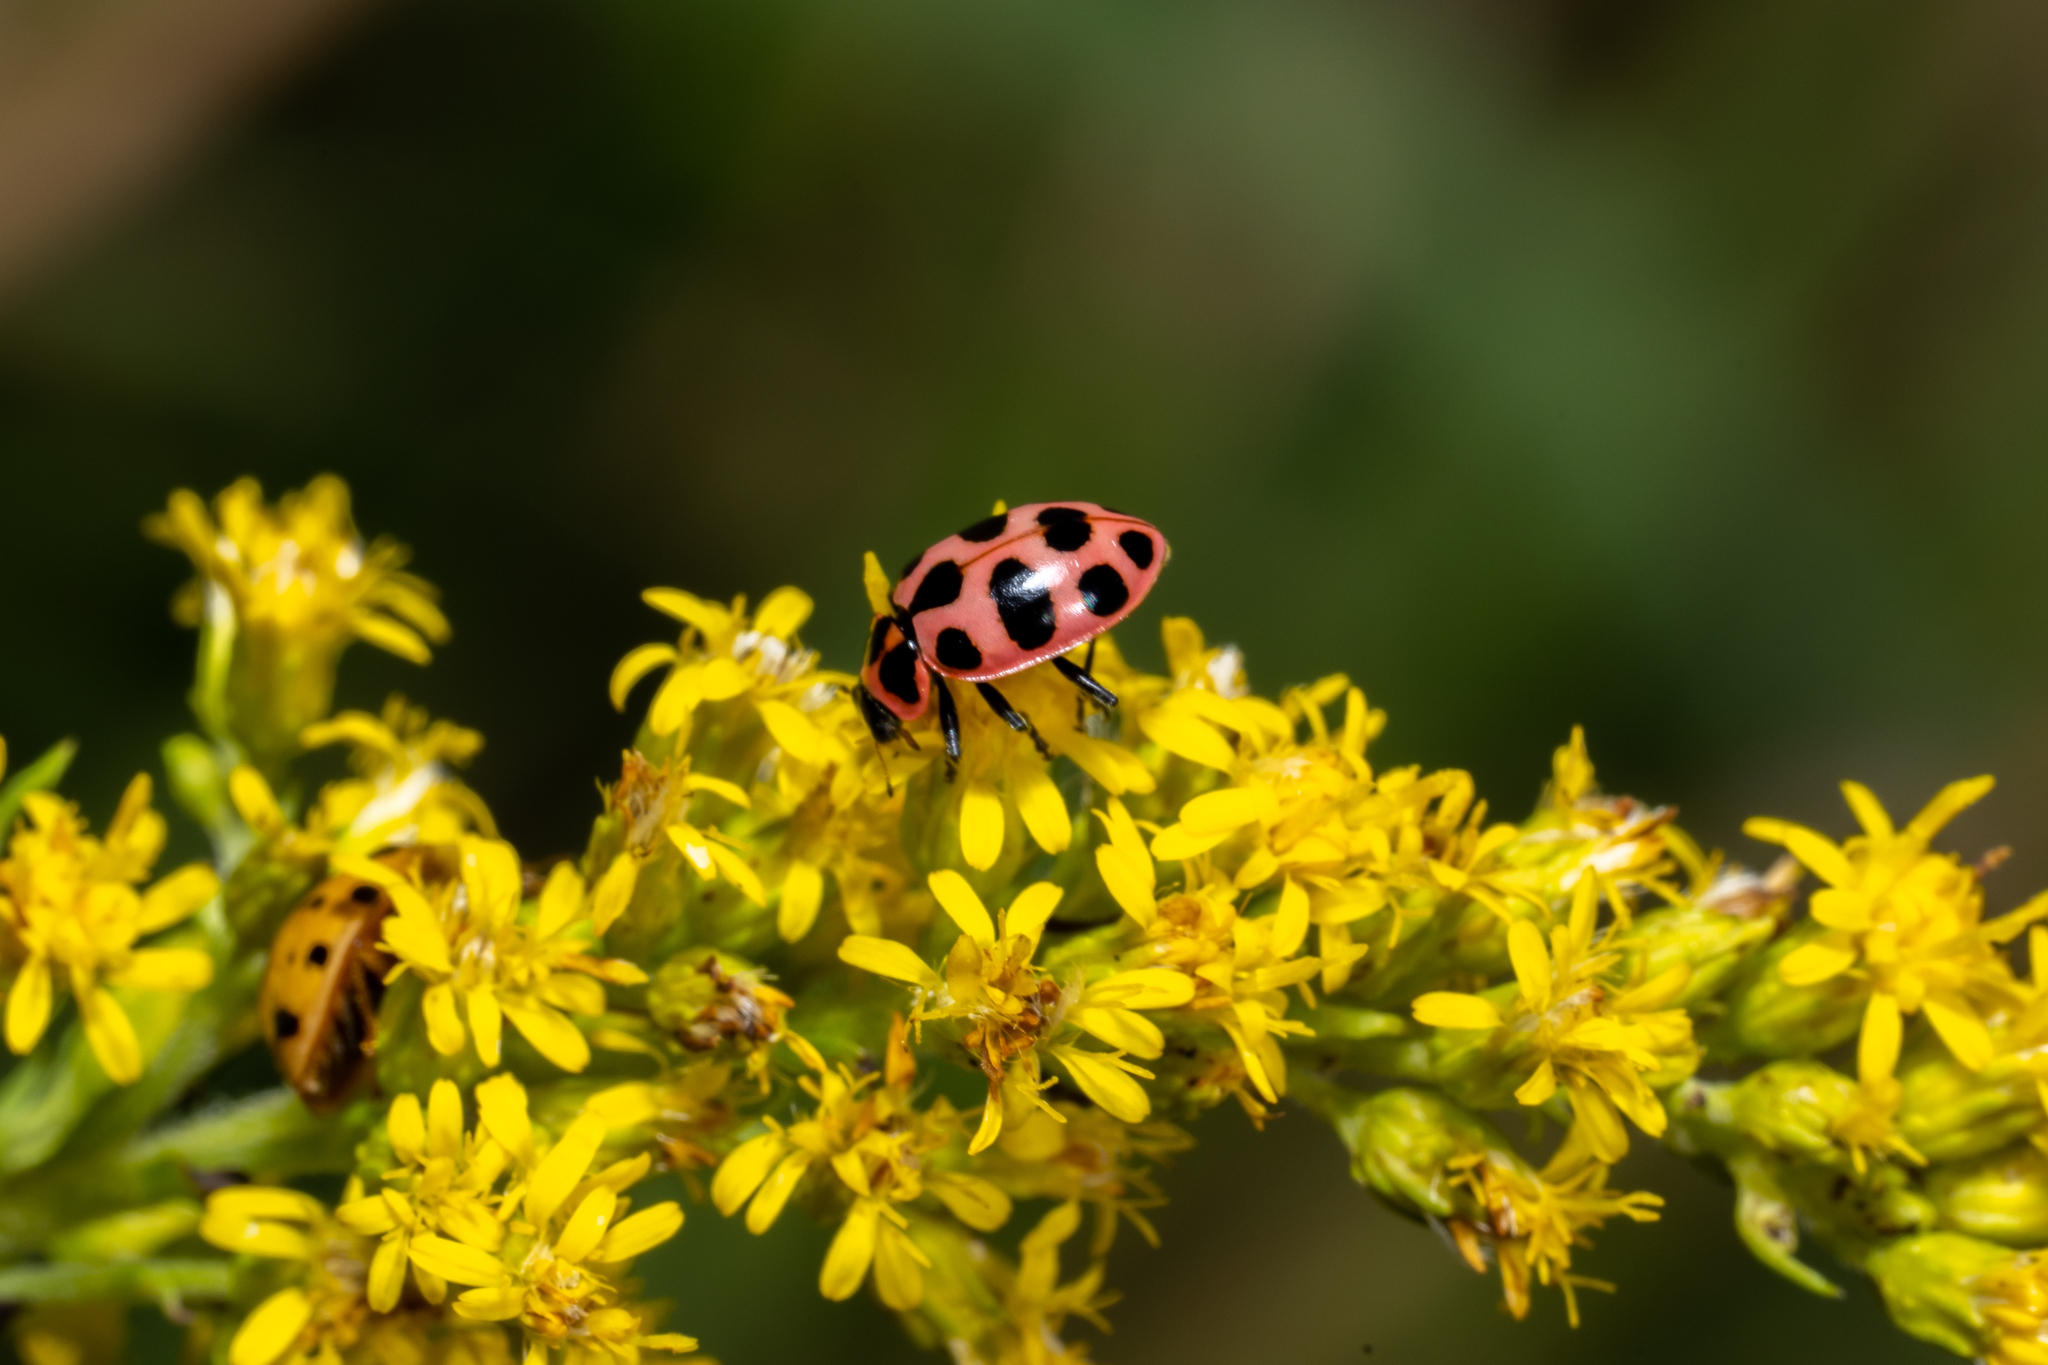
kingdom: Animalia
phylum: Arthropoda
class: Insecta
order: Coleoptera
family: Coccinellidae
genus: Coleomegilla
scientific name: Coleomegilla maculata
